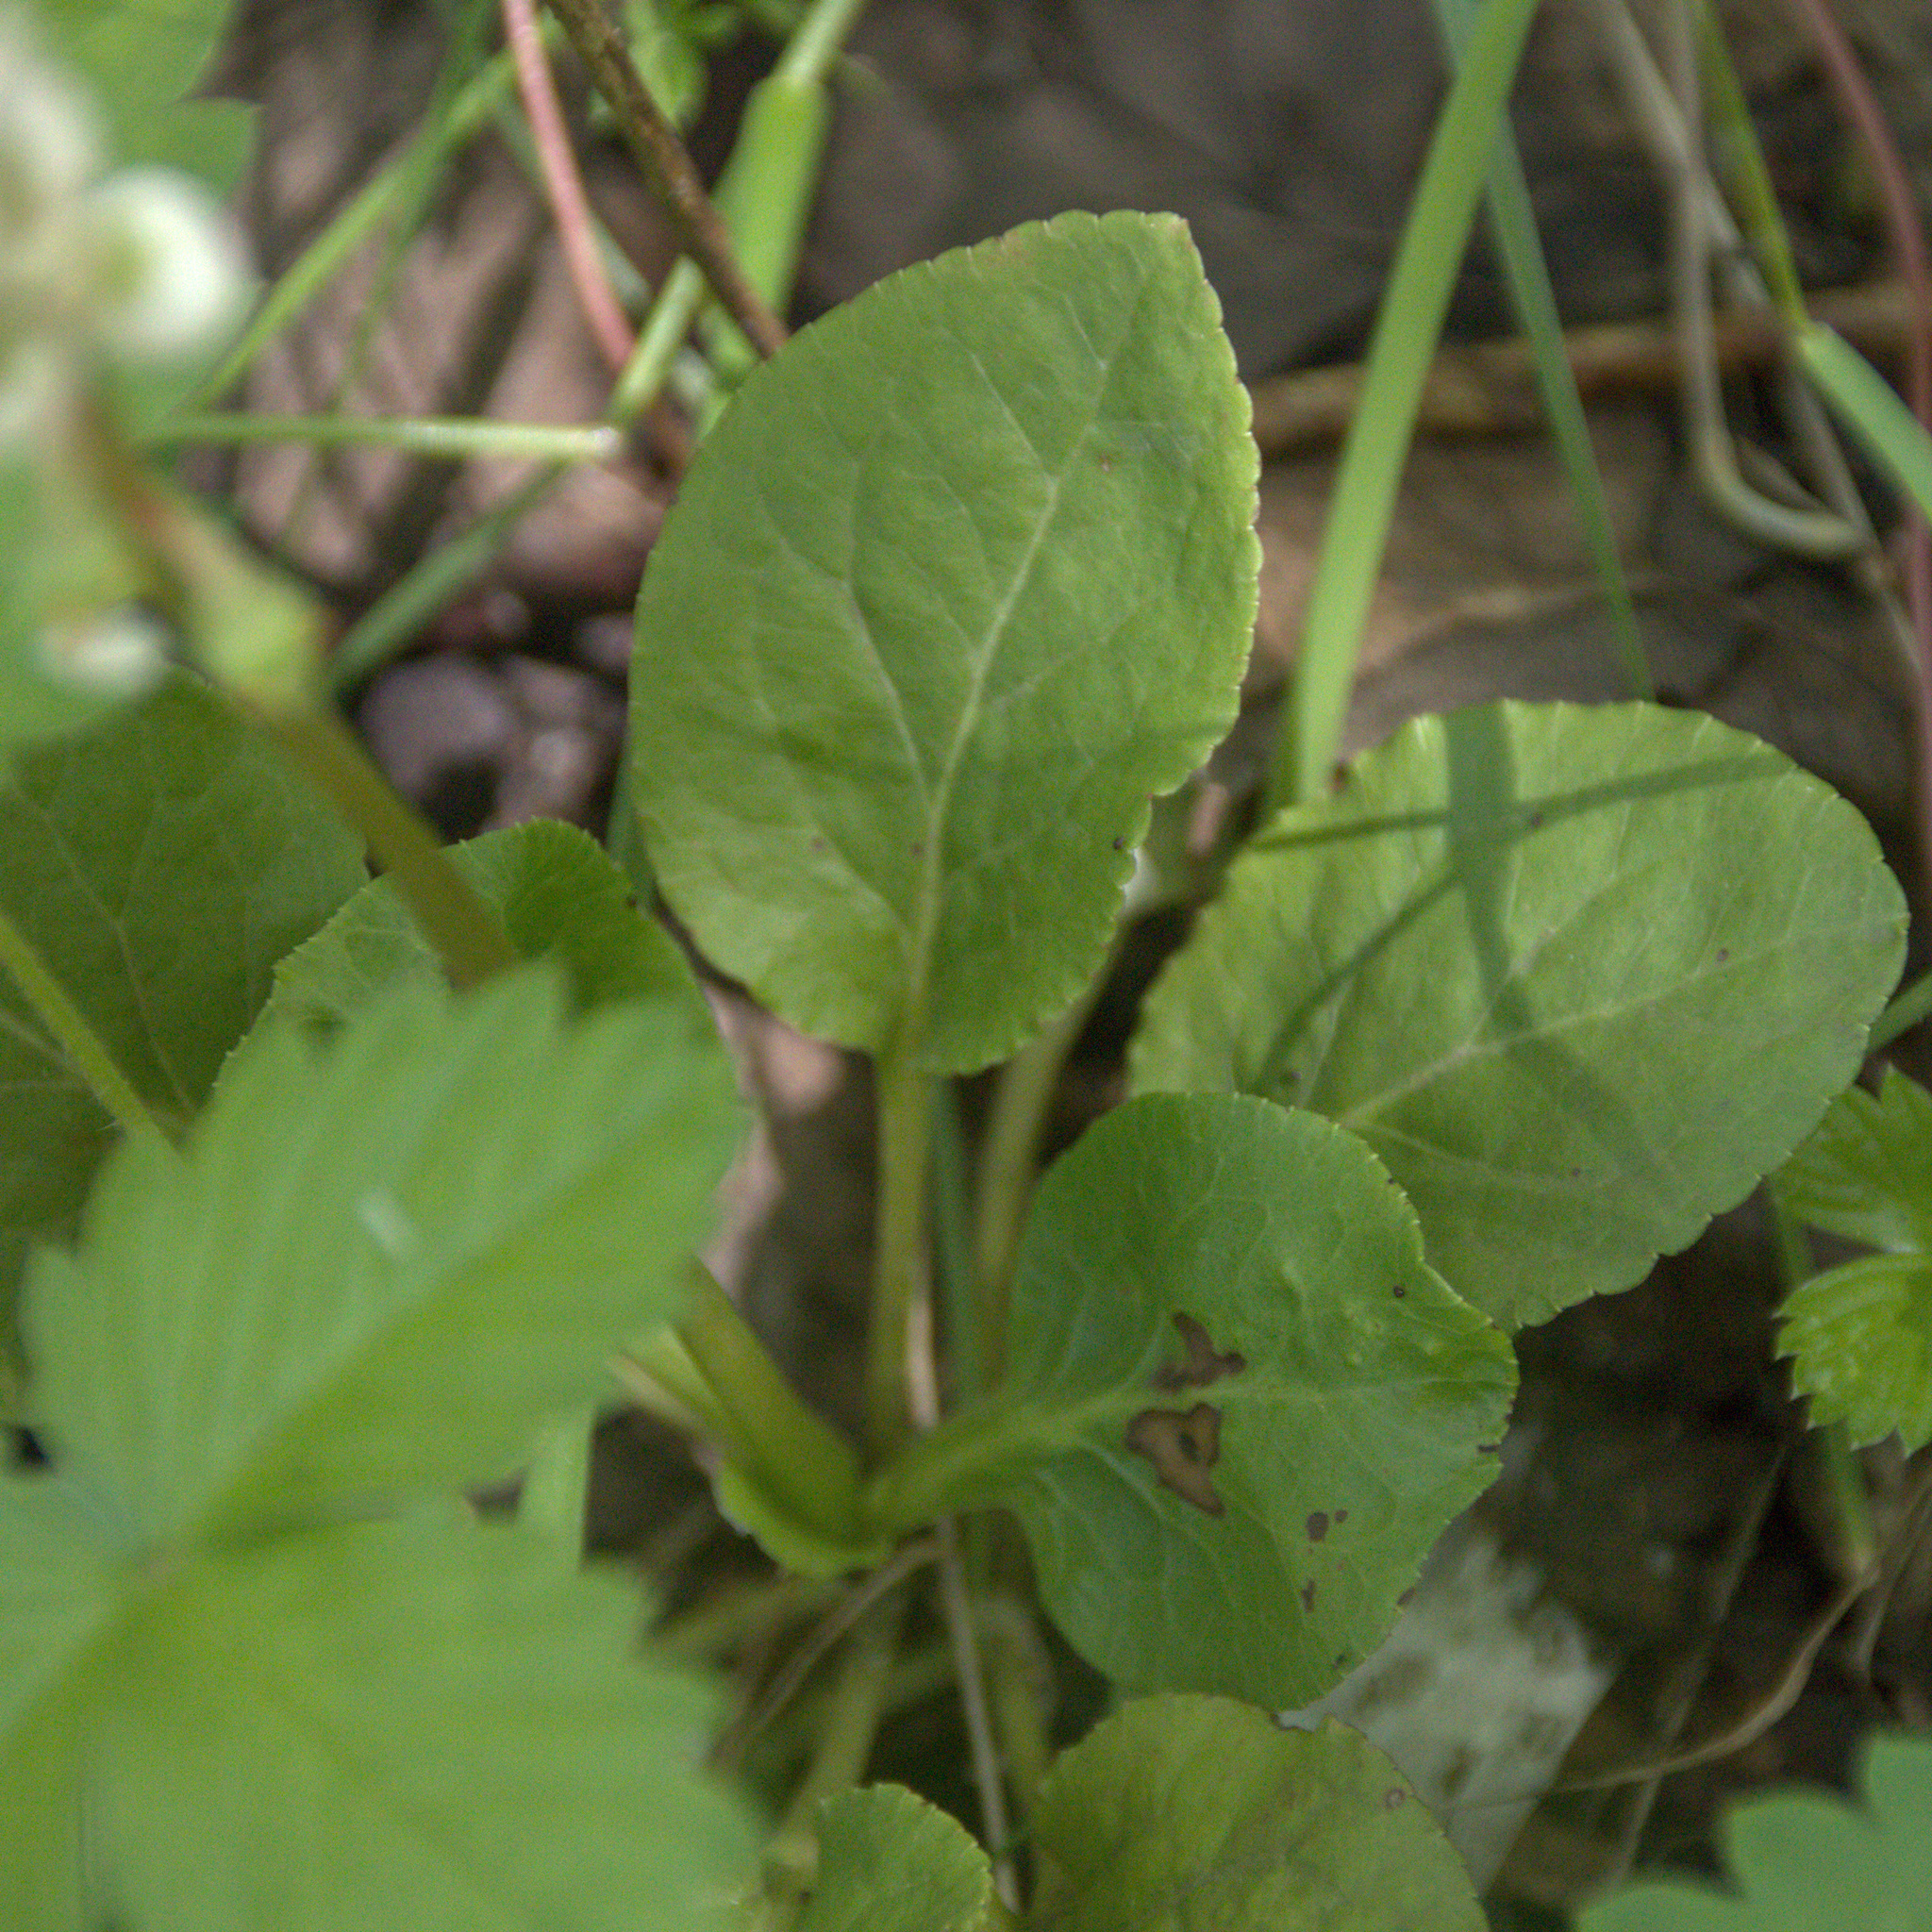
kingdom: Plantae
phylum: Tracheophyta
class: Magnoliopsida
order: Ericales
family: Ericaceae
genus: Pyrola
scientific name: Pyrola minor
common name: Common wintergreen
